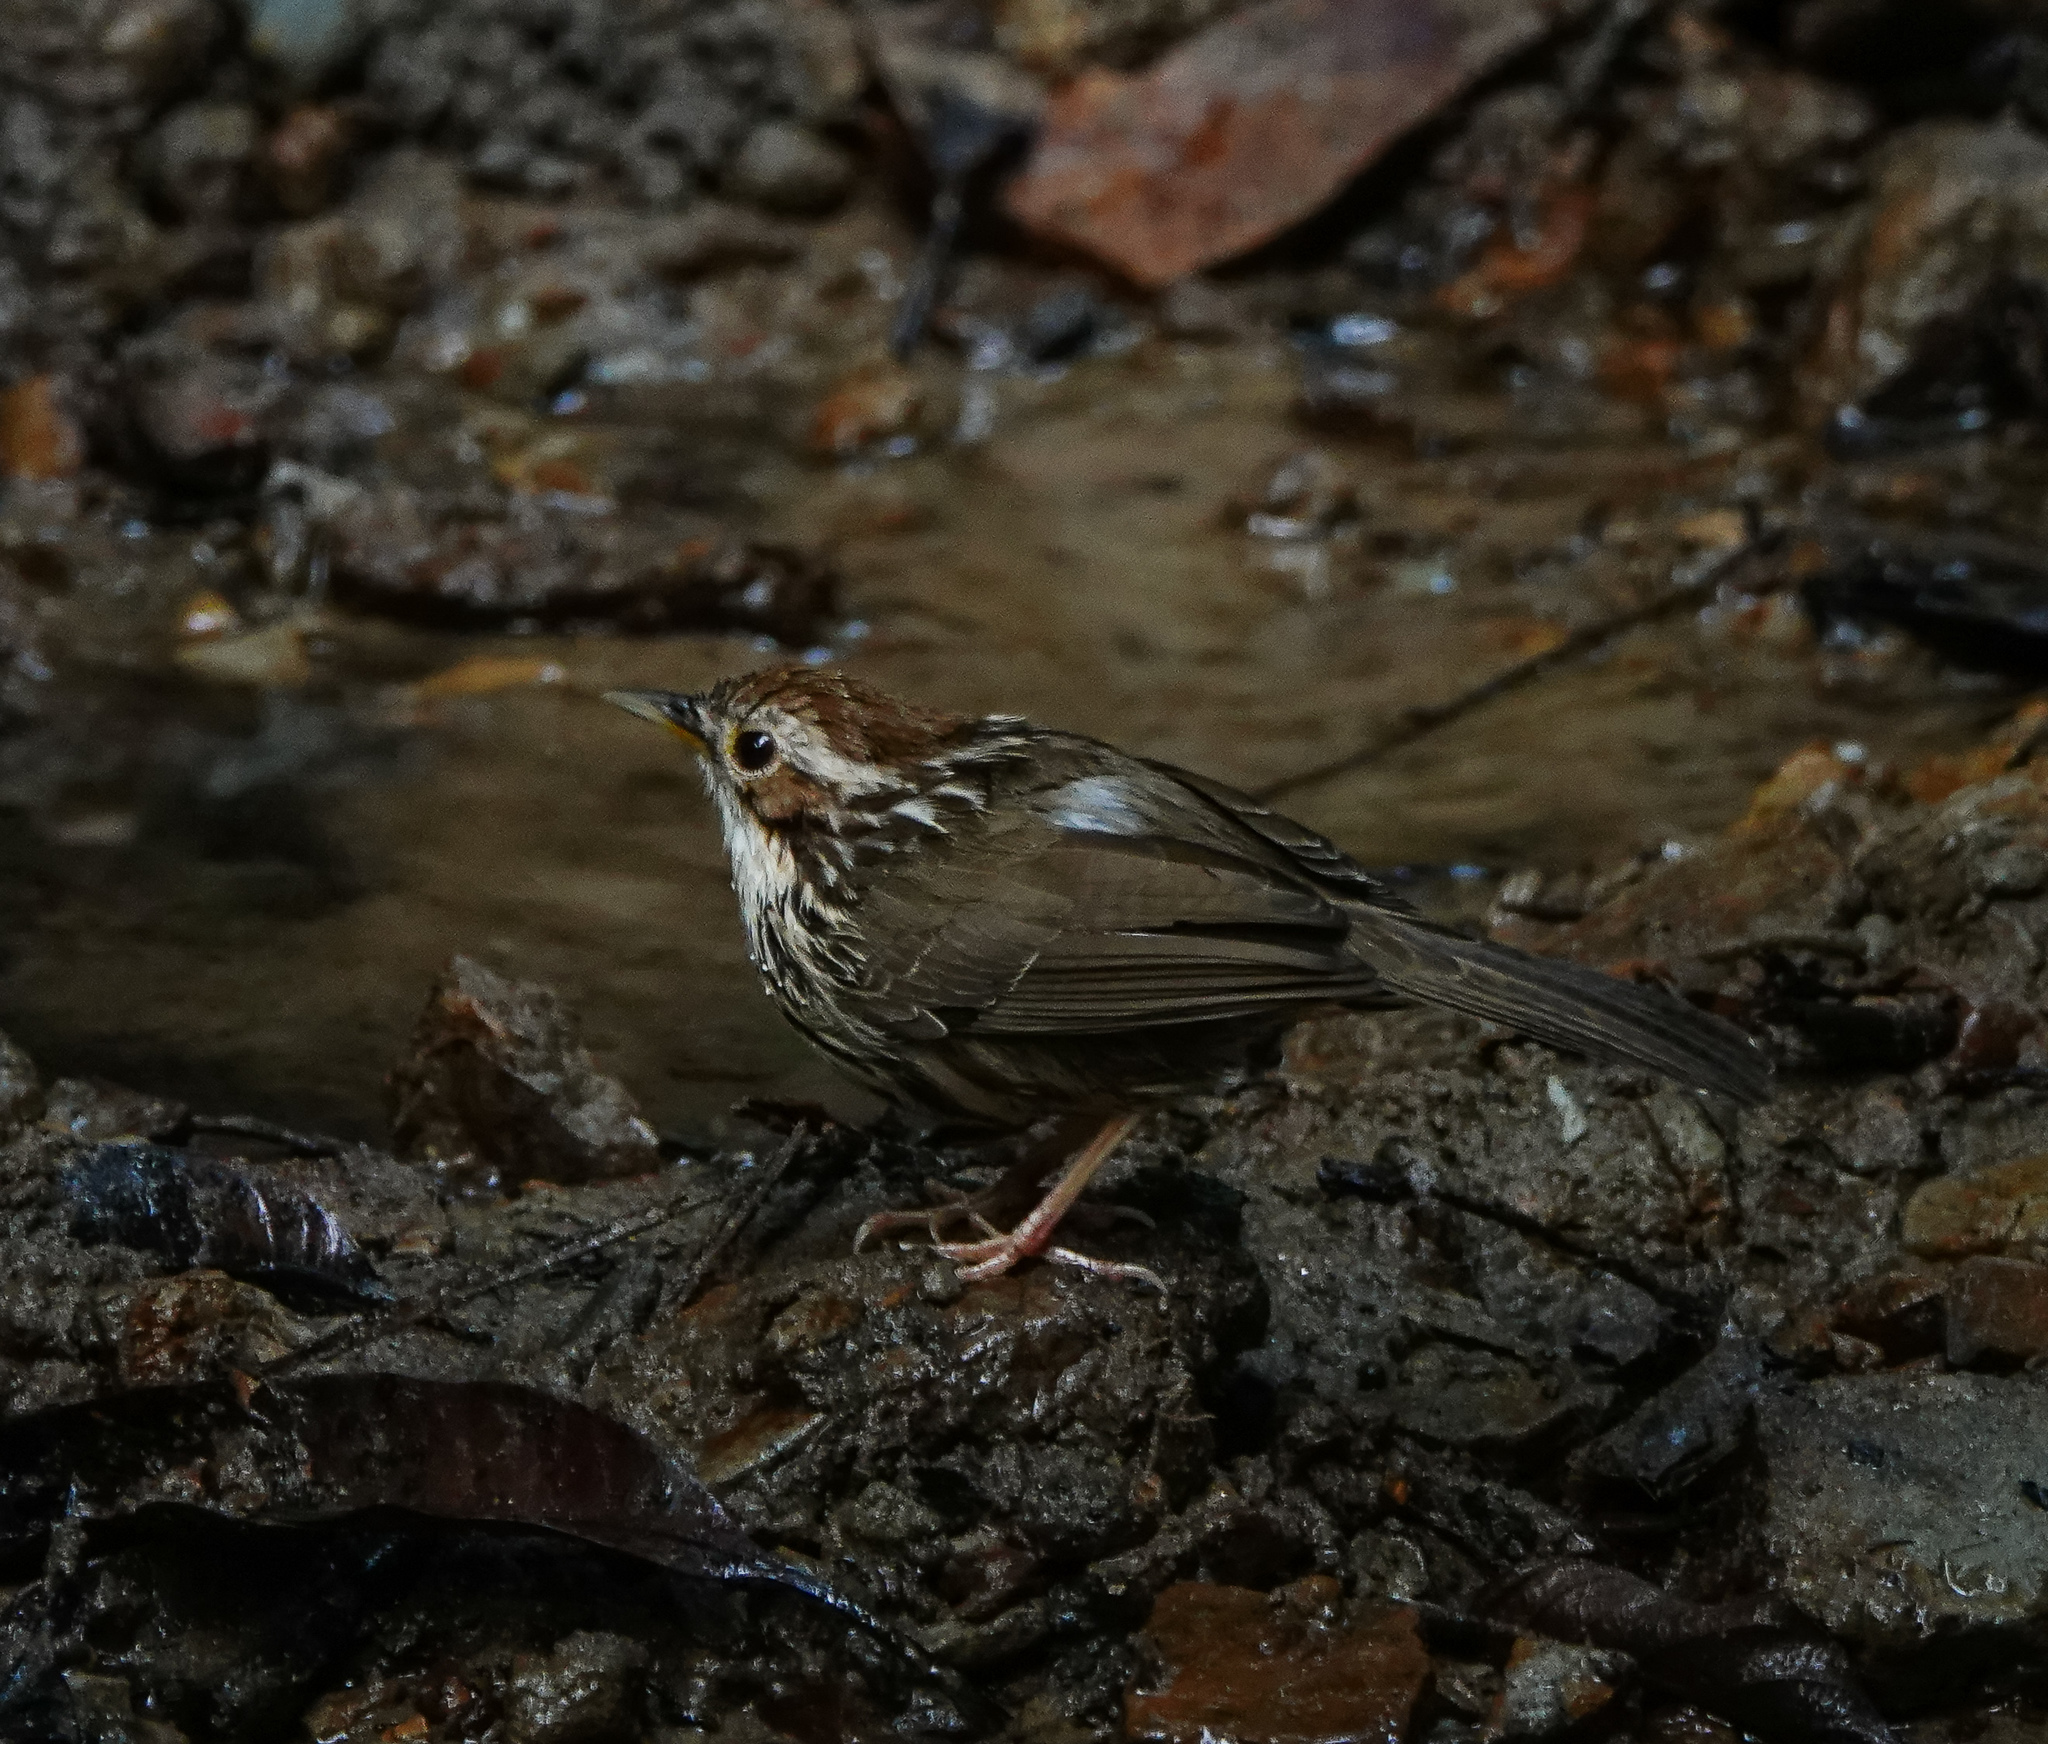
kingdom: Animalia
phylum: Chordata
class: Aves
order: Passeriformes
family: Pellorneidae
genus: Pellorneum
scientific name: Pellorneum ruficeps
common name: Puff-throated babbler
